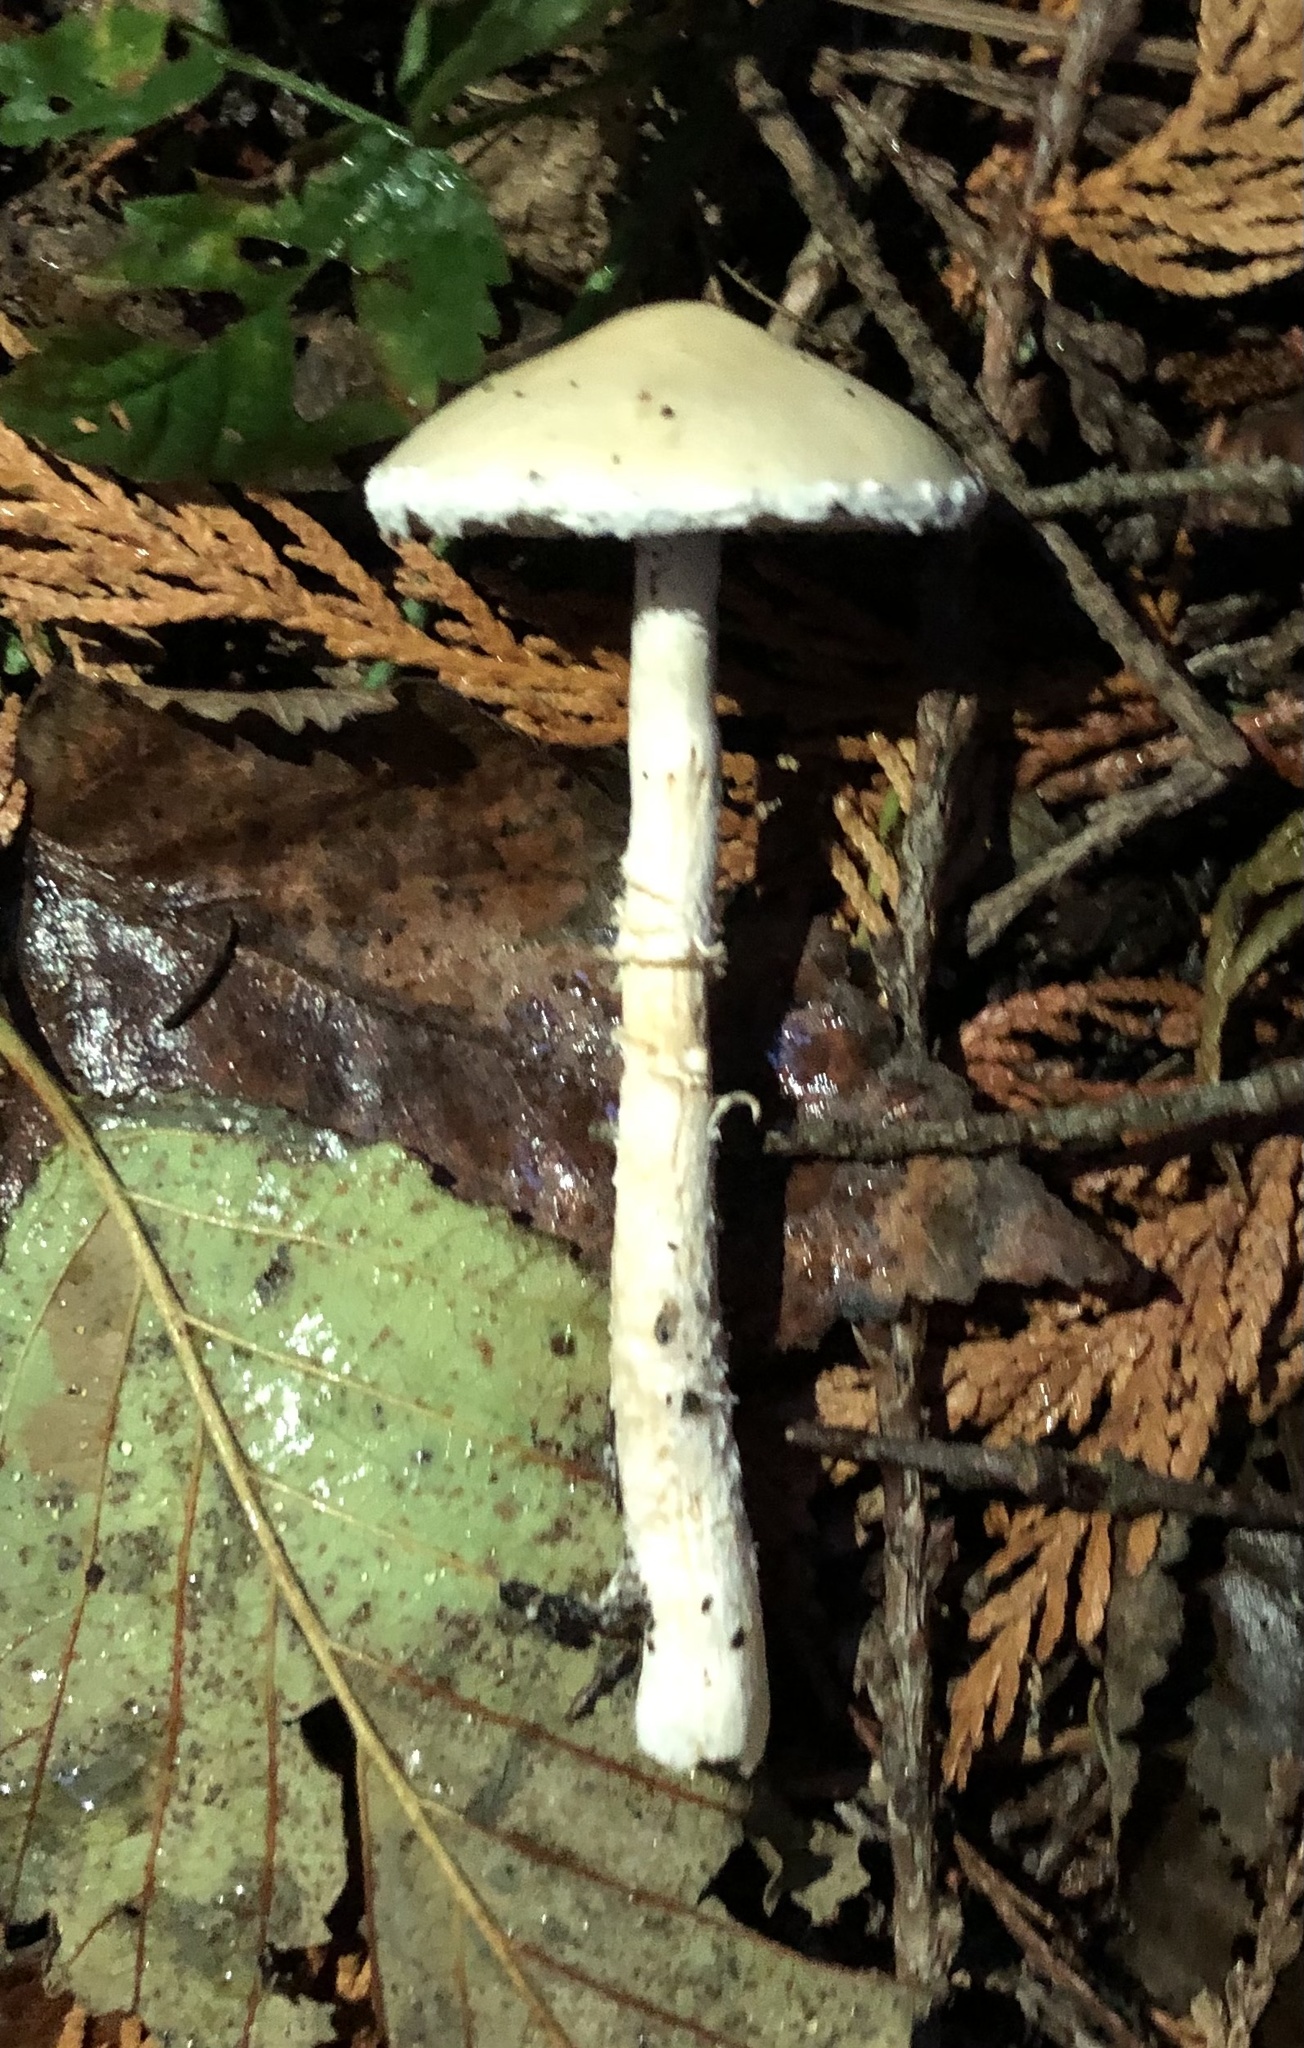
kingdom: Fungi
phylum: Basidiomycota
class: Agaricomycetes
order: Agaricales
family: Strophariaceae
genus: Stropharia
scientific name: Stropharia ambigua
